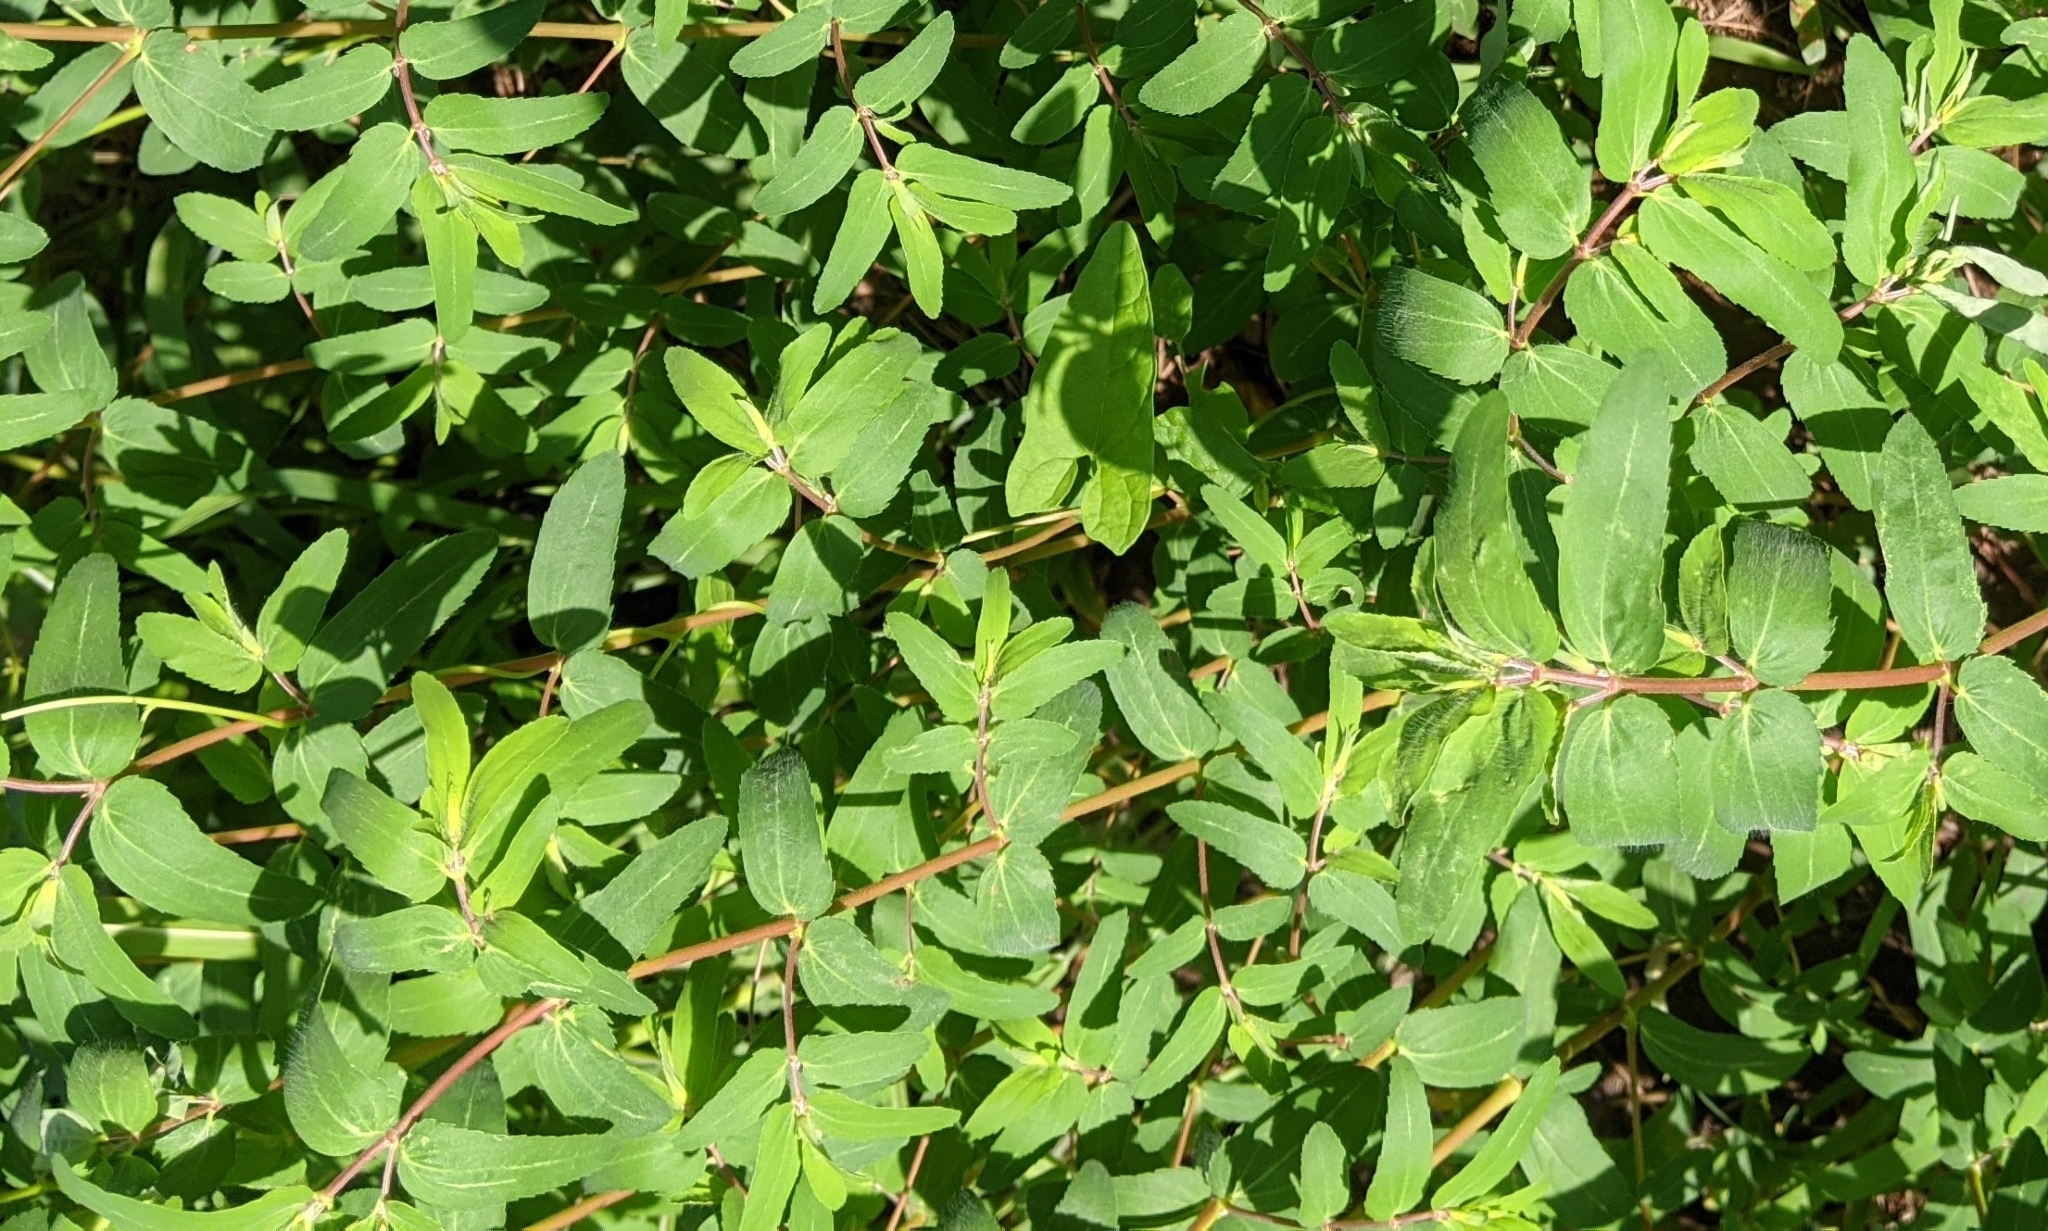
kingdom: Plantae
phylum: Tracheophyta
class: Magnoliopsida
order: Malpighiales
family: Euphorbiaceae
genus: Euphorbia
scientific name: Euphorbia nutans
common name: Eyebane
